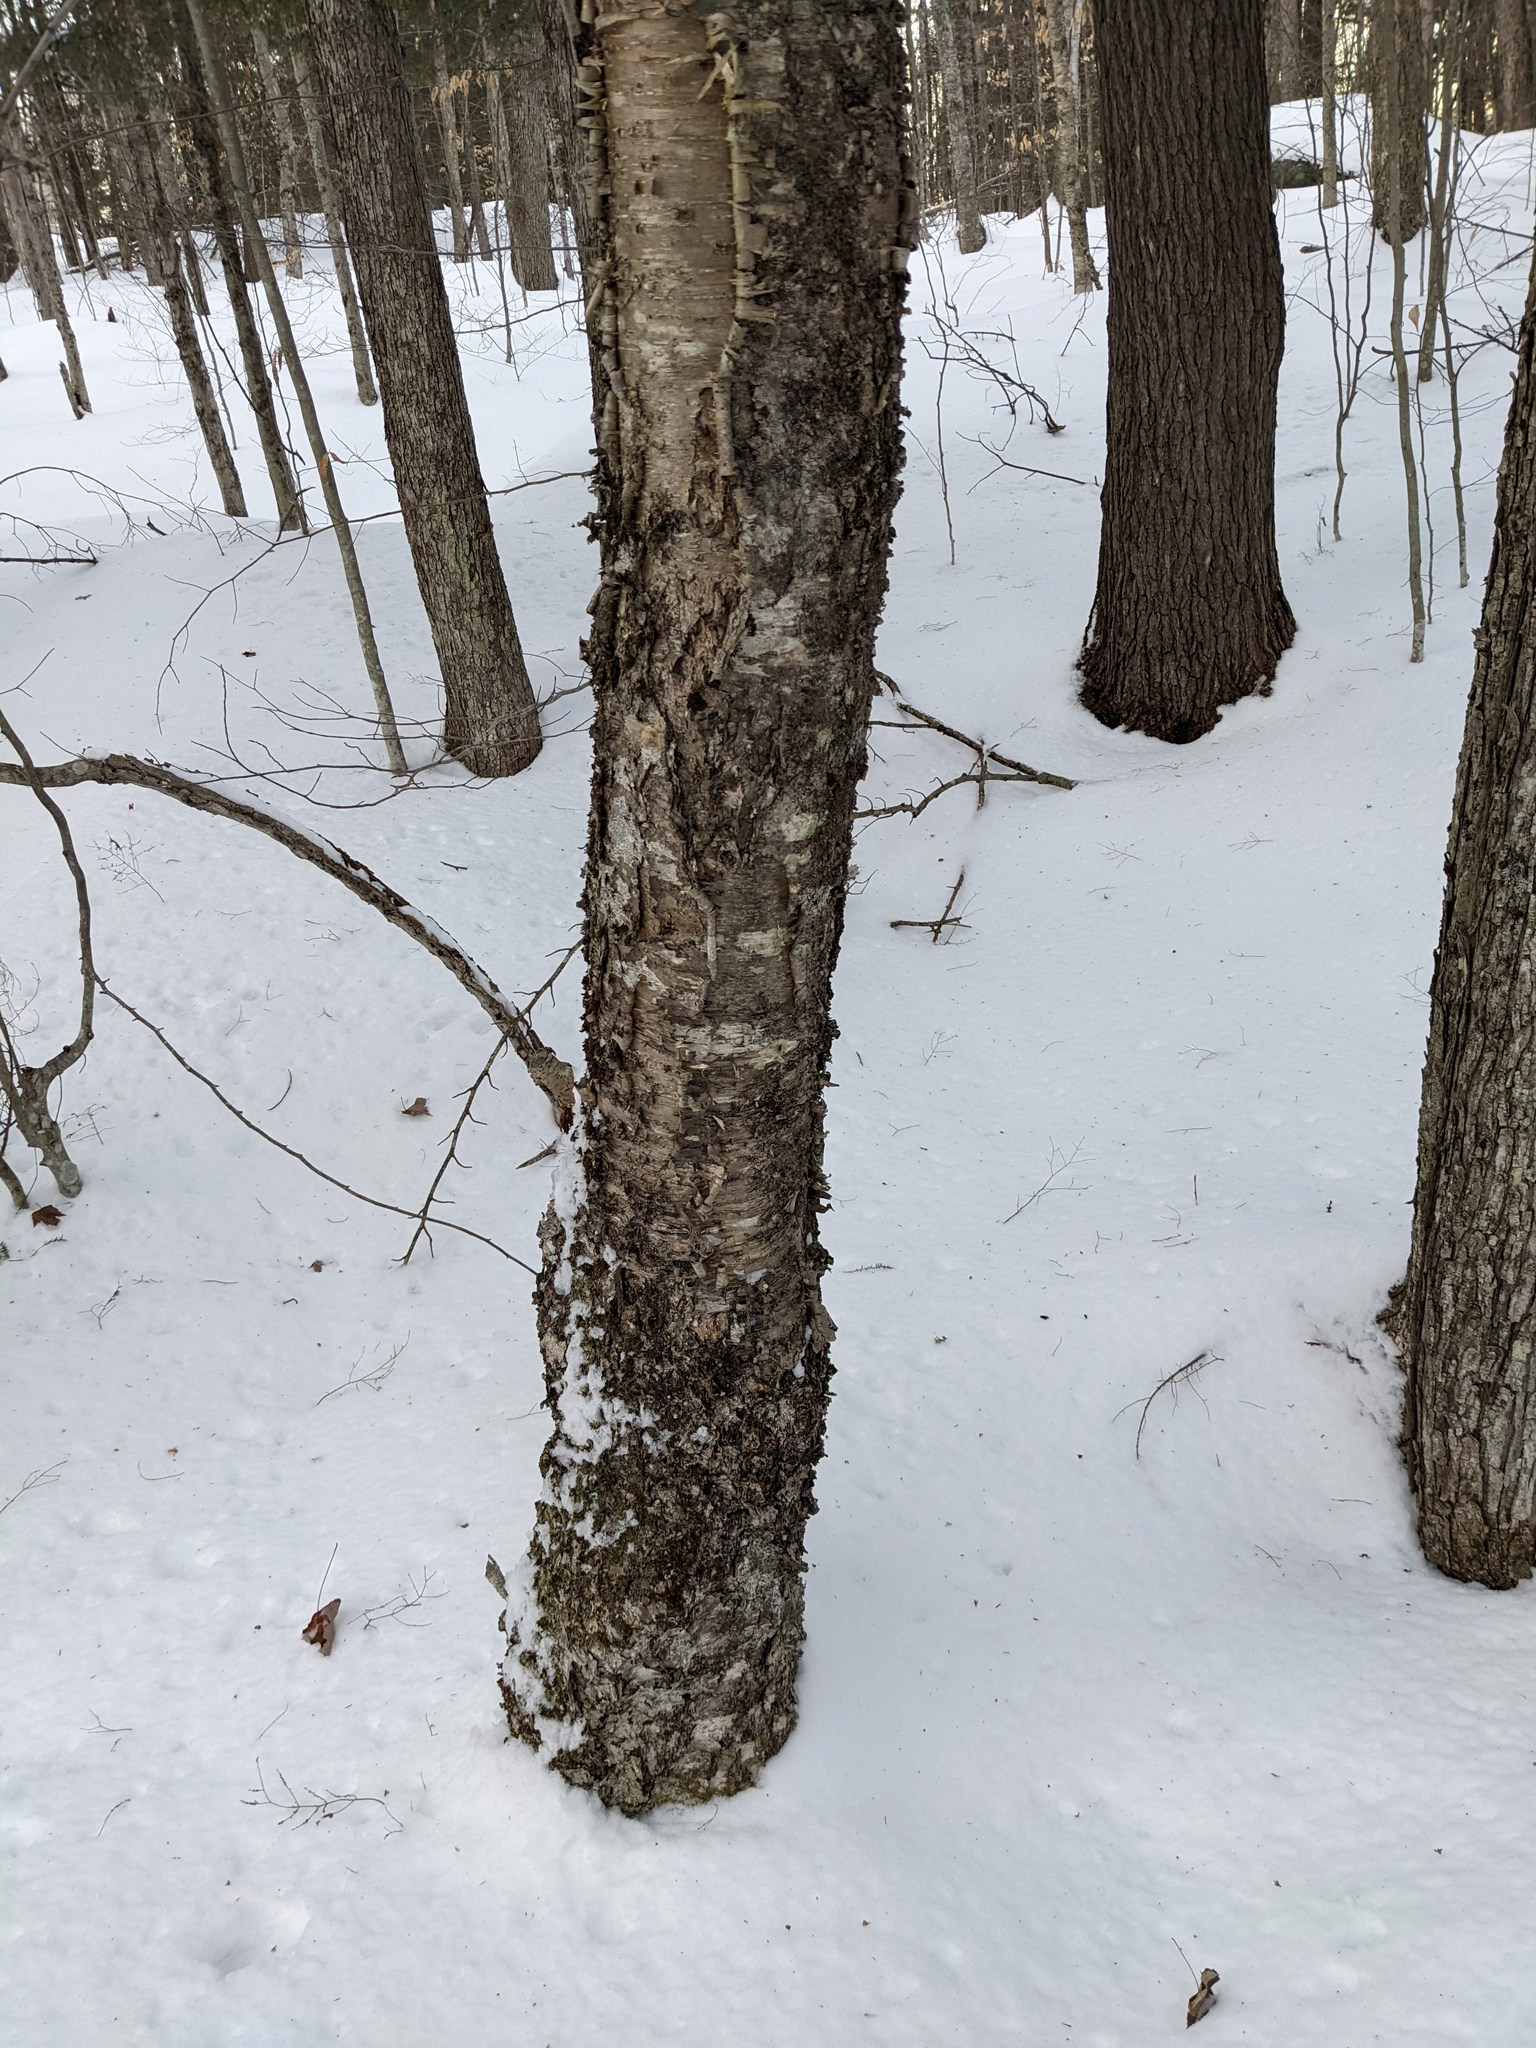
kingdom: Plantae
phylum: Tracheophyta
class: Magnoliopsida
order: Fagales
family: Betulaceae
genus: Betula
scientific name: Betula alleghaniensis
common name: Yellow birch
